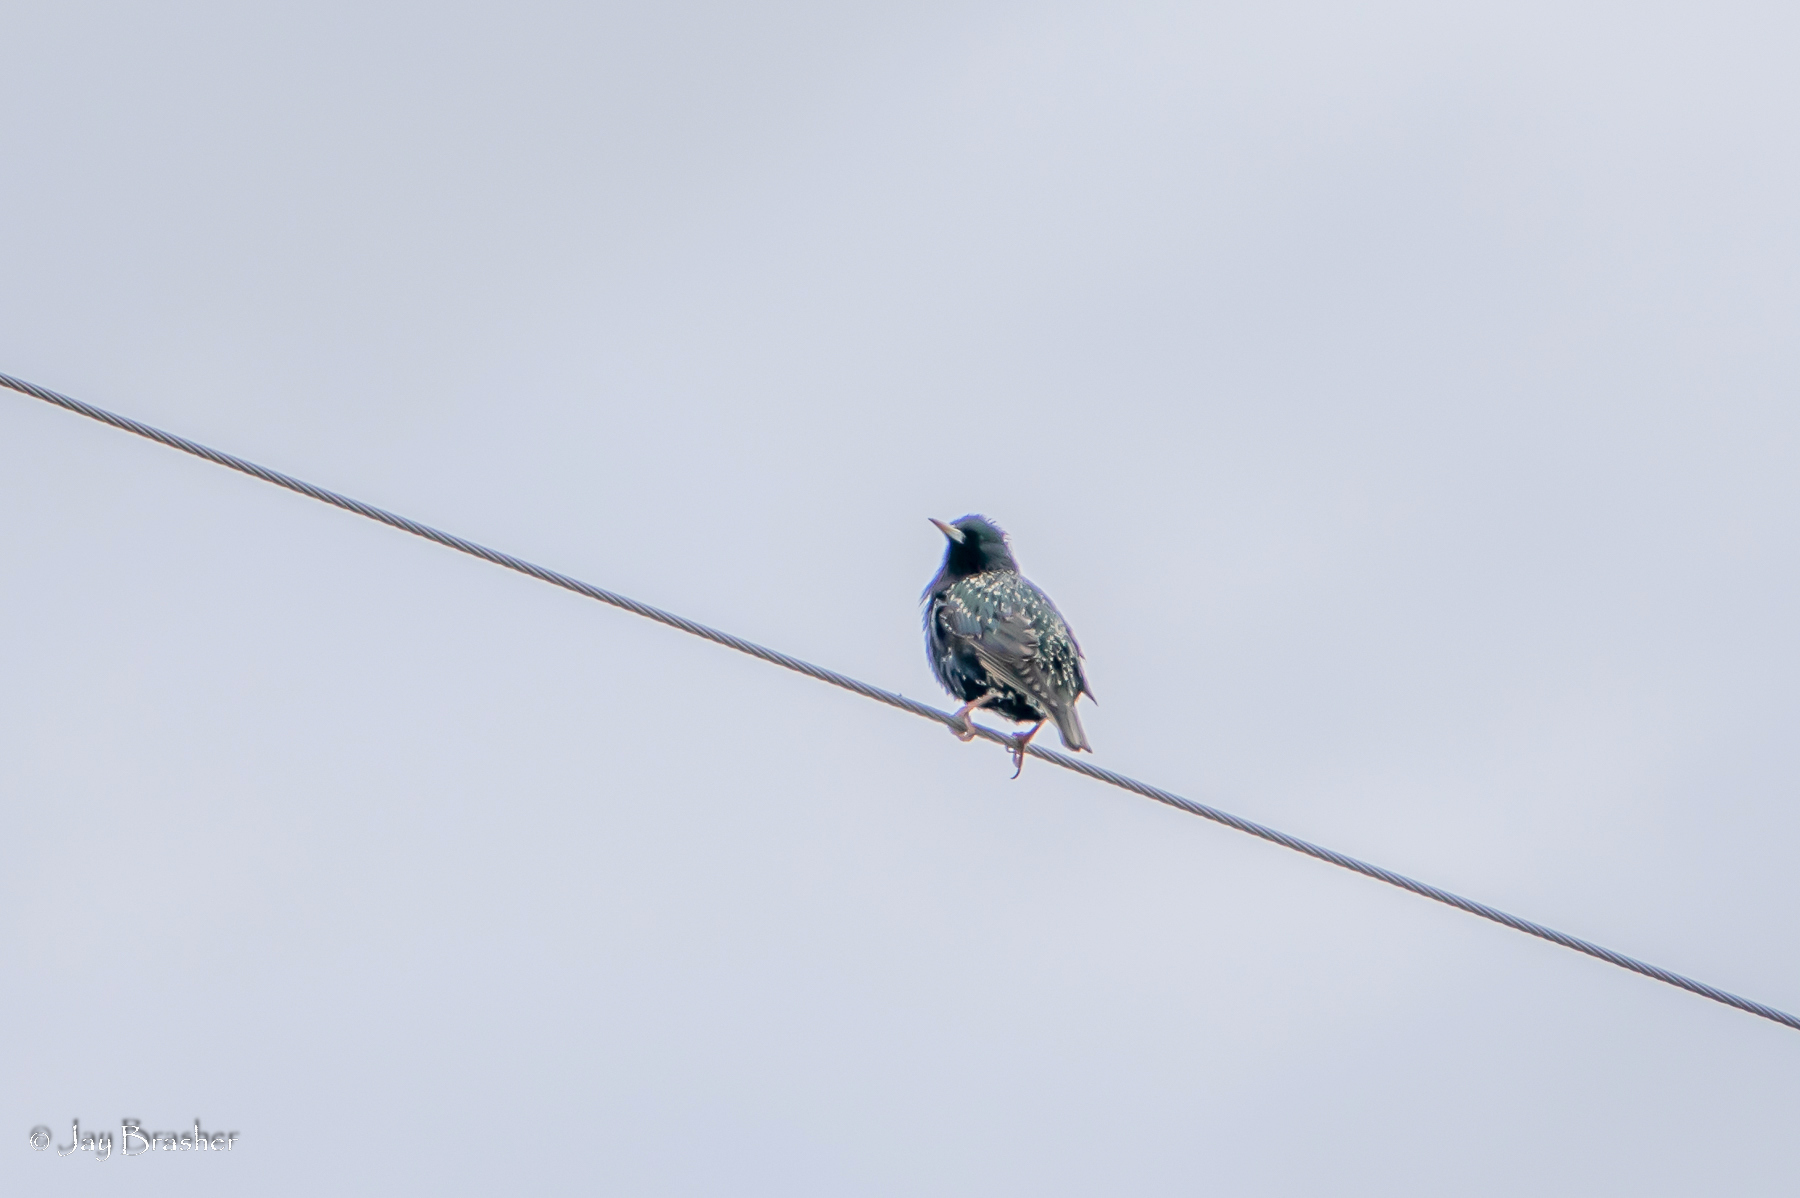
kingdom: Animalia
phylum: Chordata
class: Aves
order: Passeriformes
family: Sturnidae
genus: Sturnus
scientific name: Sturnus vulgaris
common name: Common starling
